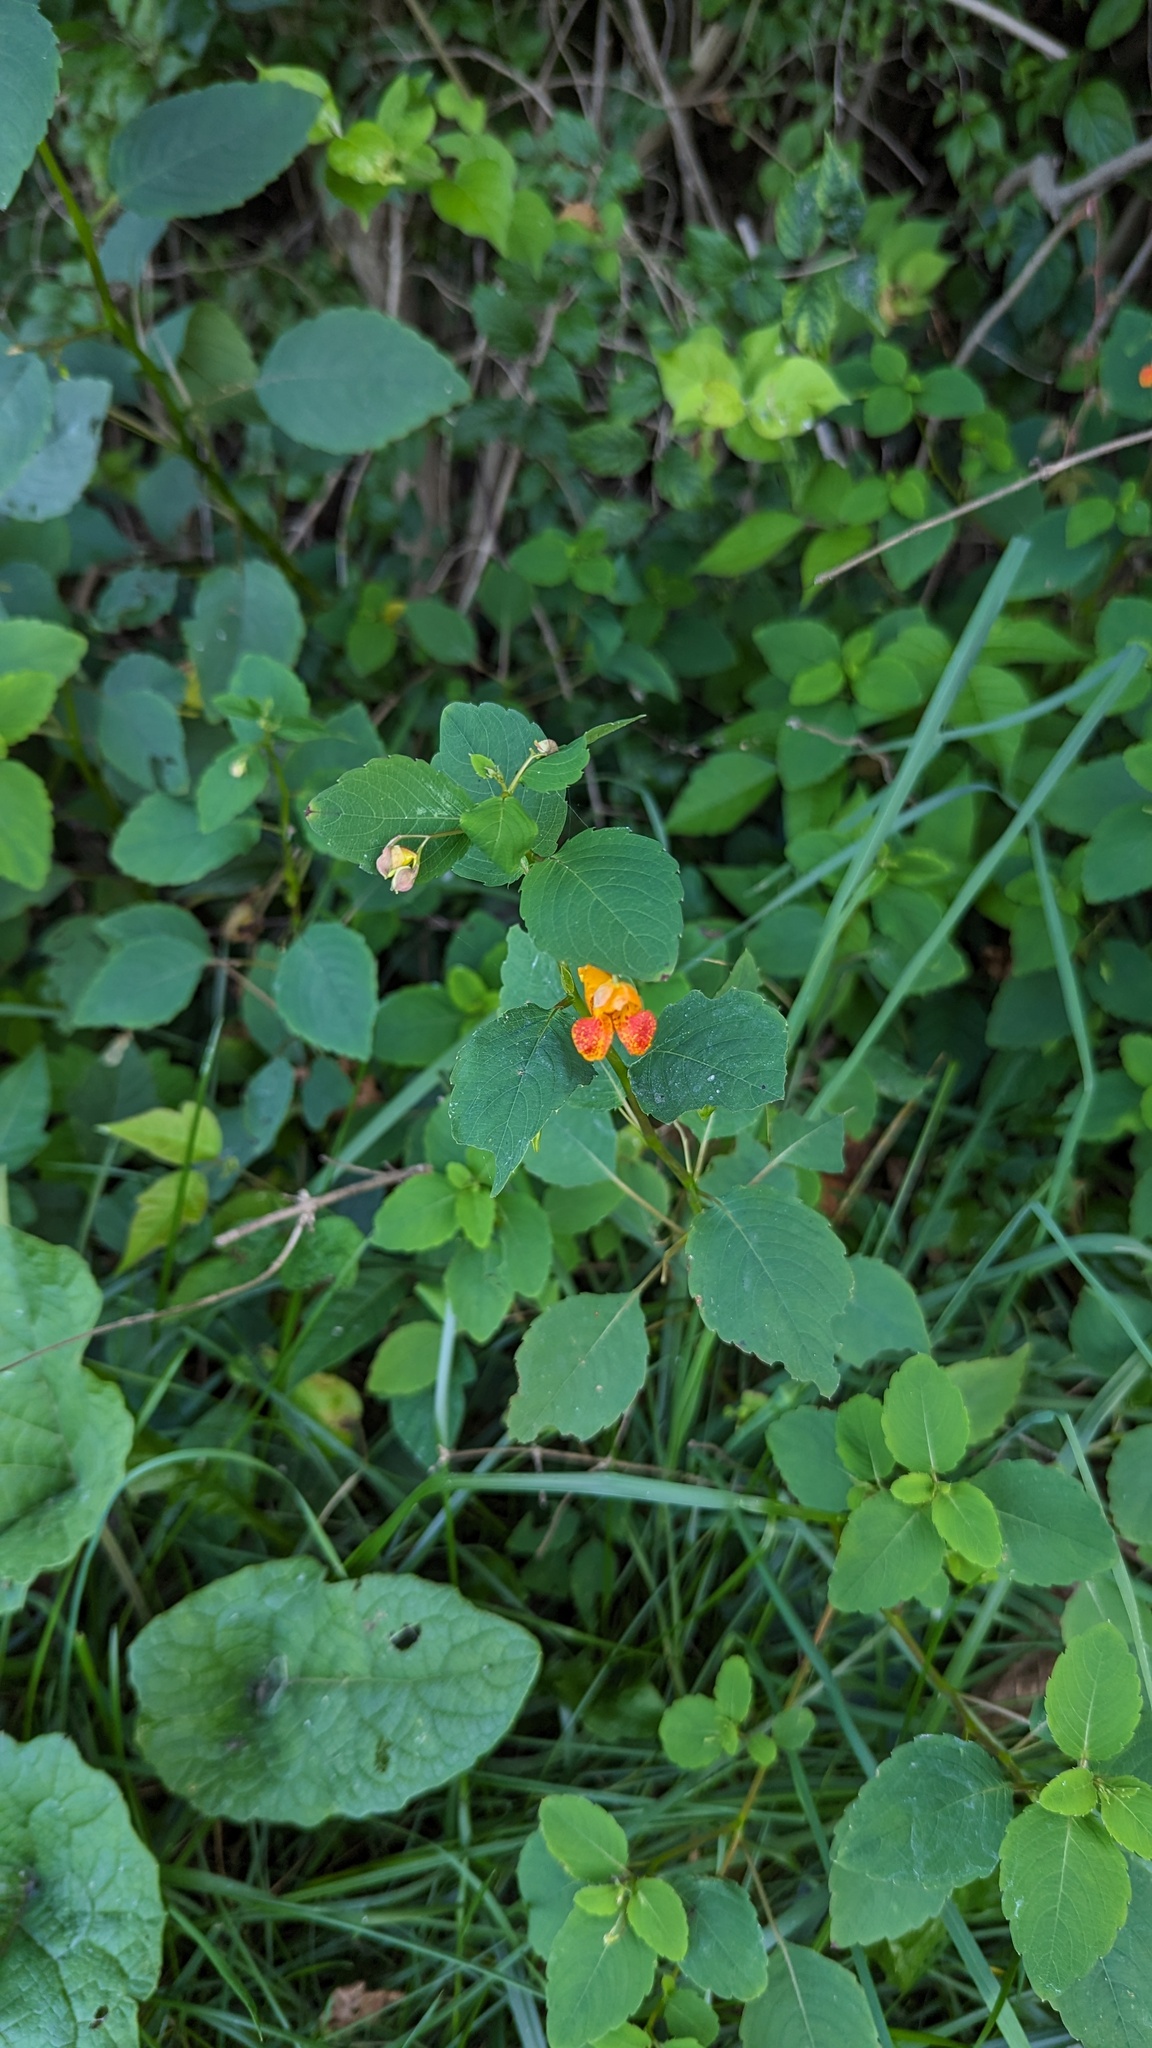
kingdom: Plantae
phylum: Tracheophyta
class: Magnoliopsida
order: Ericales
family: Balsaminaceae
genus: Impatiens
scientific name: Impatiens capensis
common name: Orange balsam
